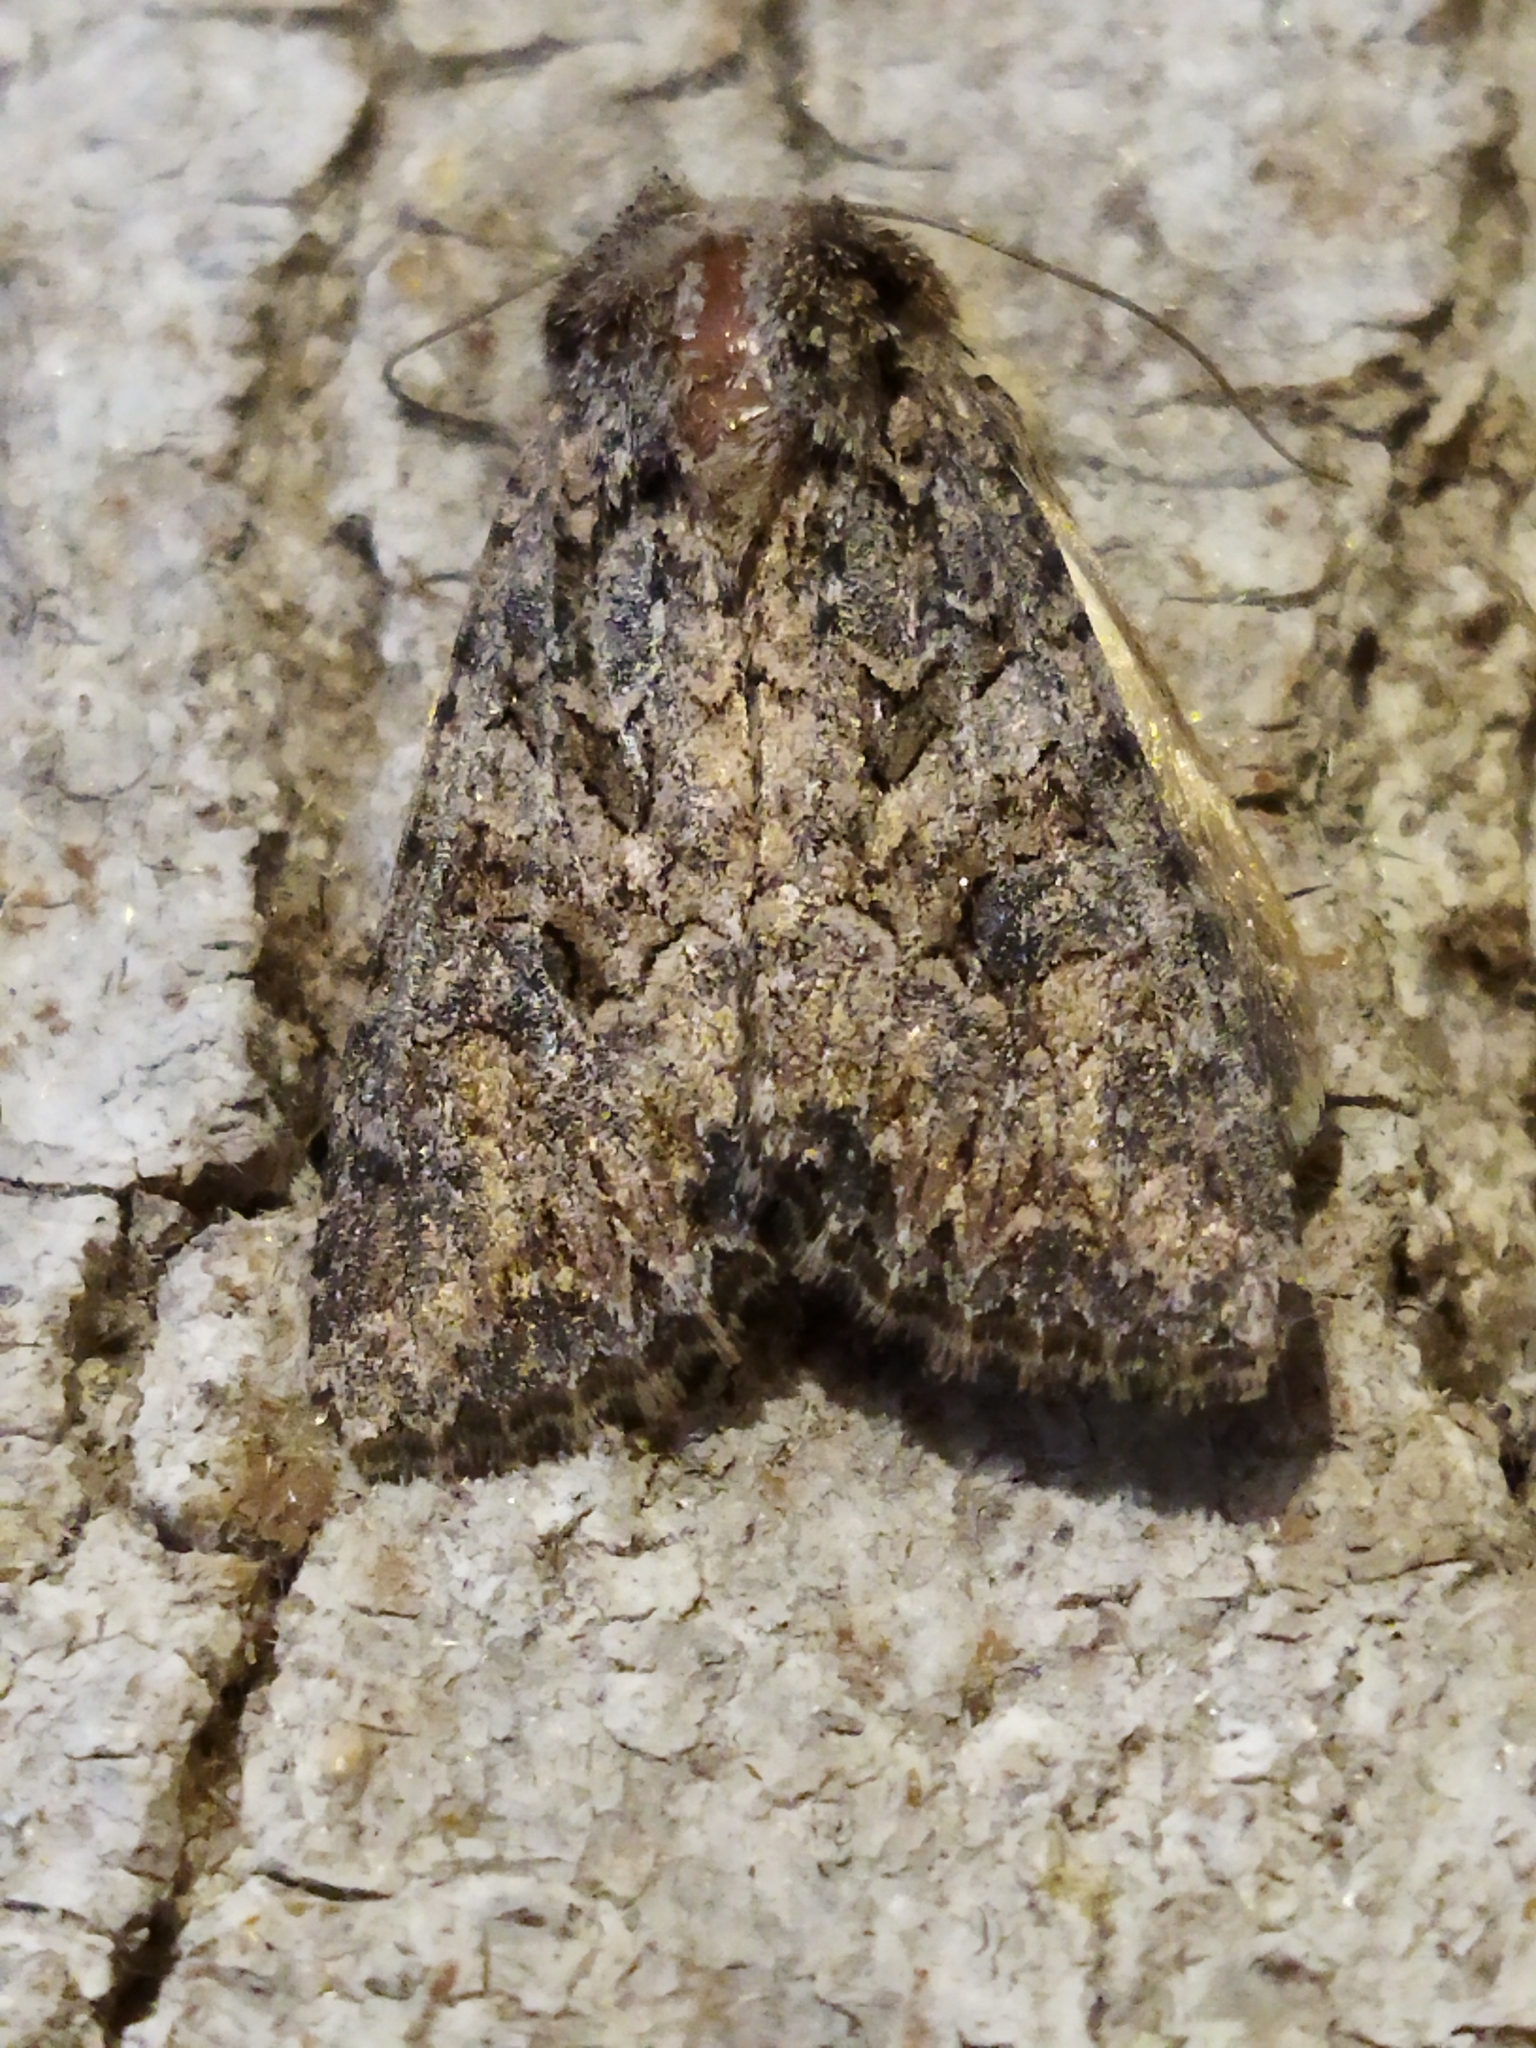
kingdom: Animalia
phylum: Arthropoda
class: Insecta
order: Lepidoptera
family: Noctuidae
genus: Anarta
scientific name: Anarta trifolii
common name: Clover cutworm moth
